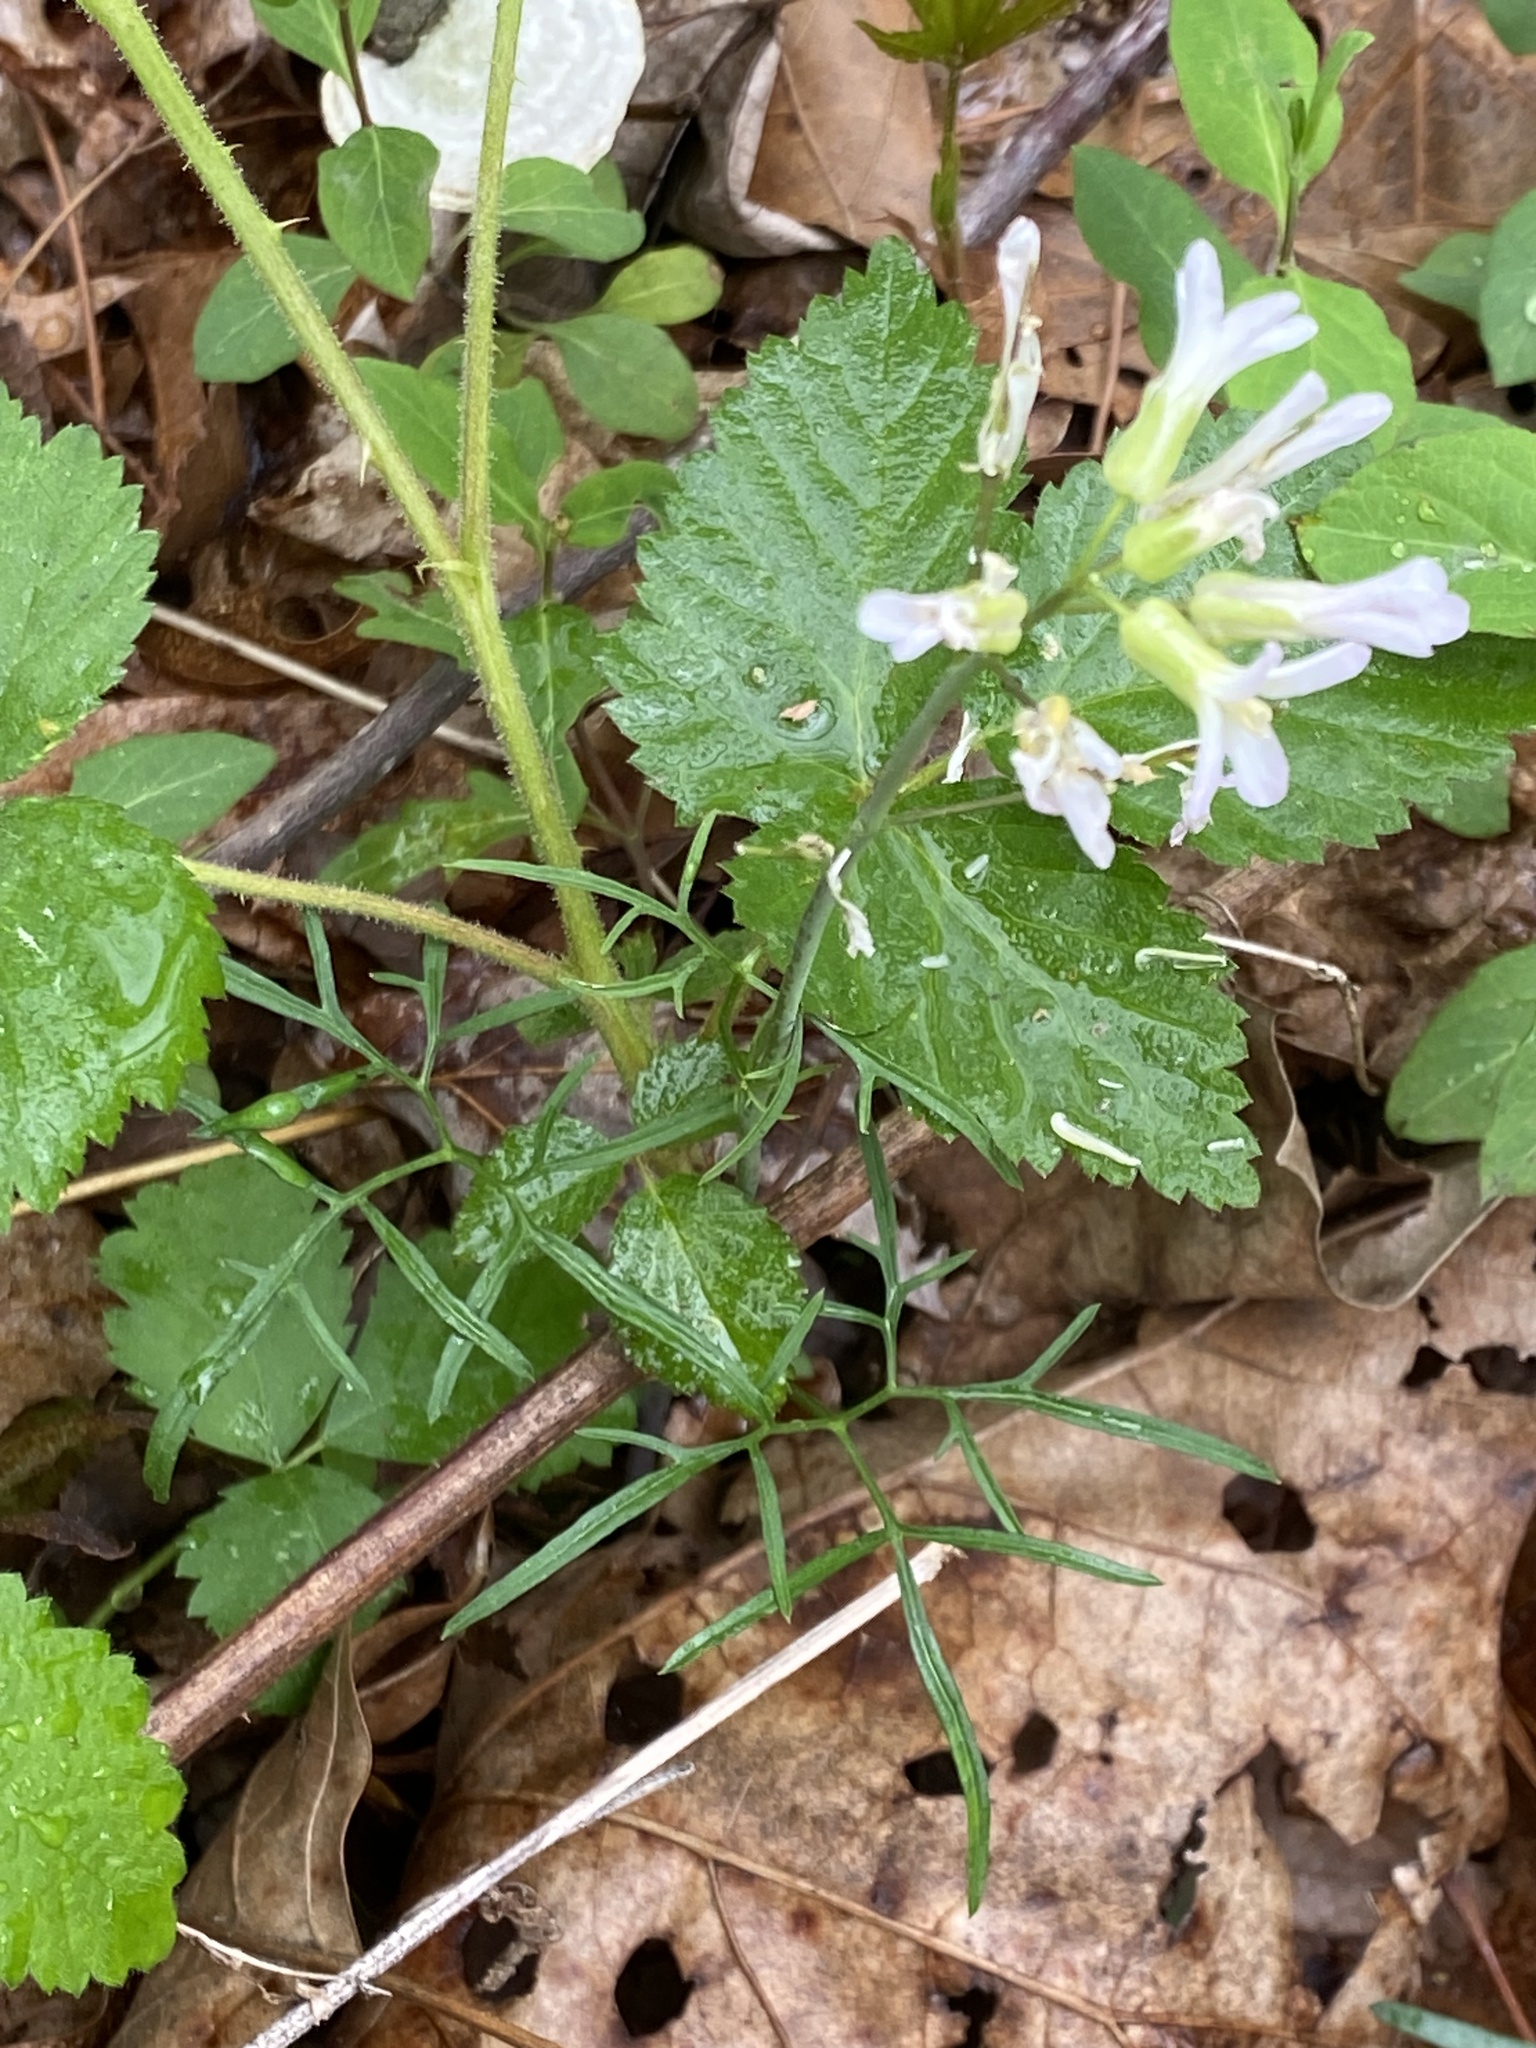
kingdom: Plantae
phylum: Tracheophyta
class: Magnoliopsida
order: Brassicales
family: Brassicaceae
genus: Cardamine
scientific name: Cardamine dissecta
